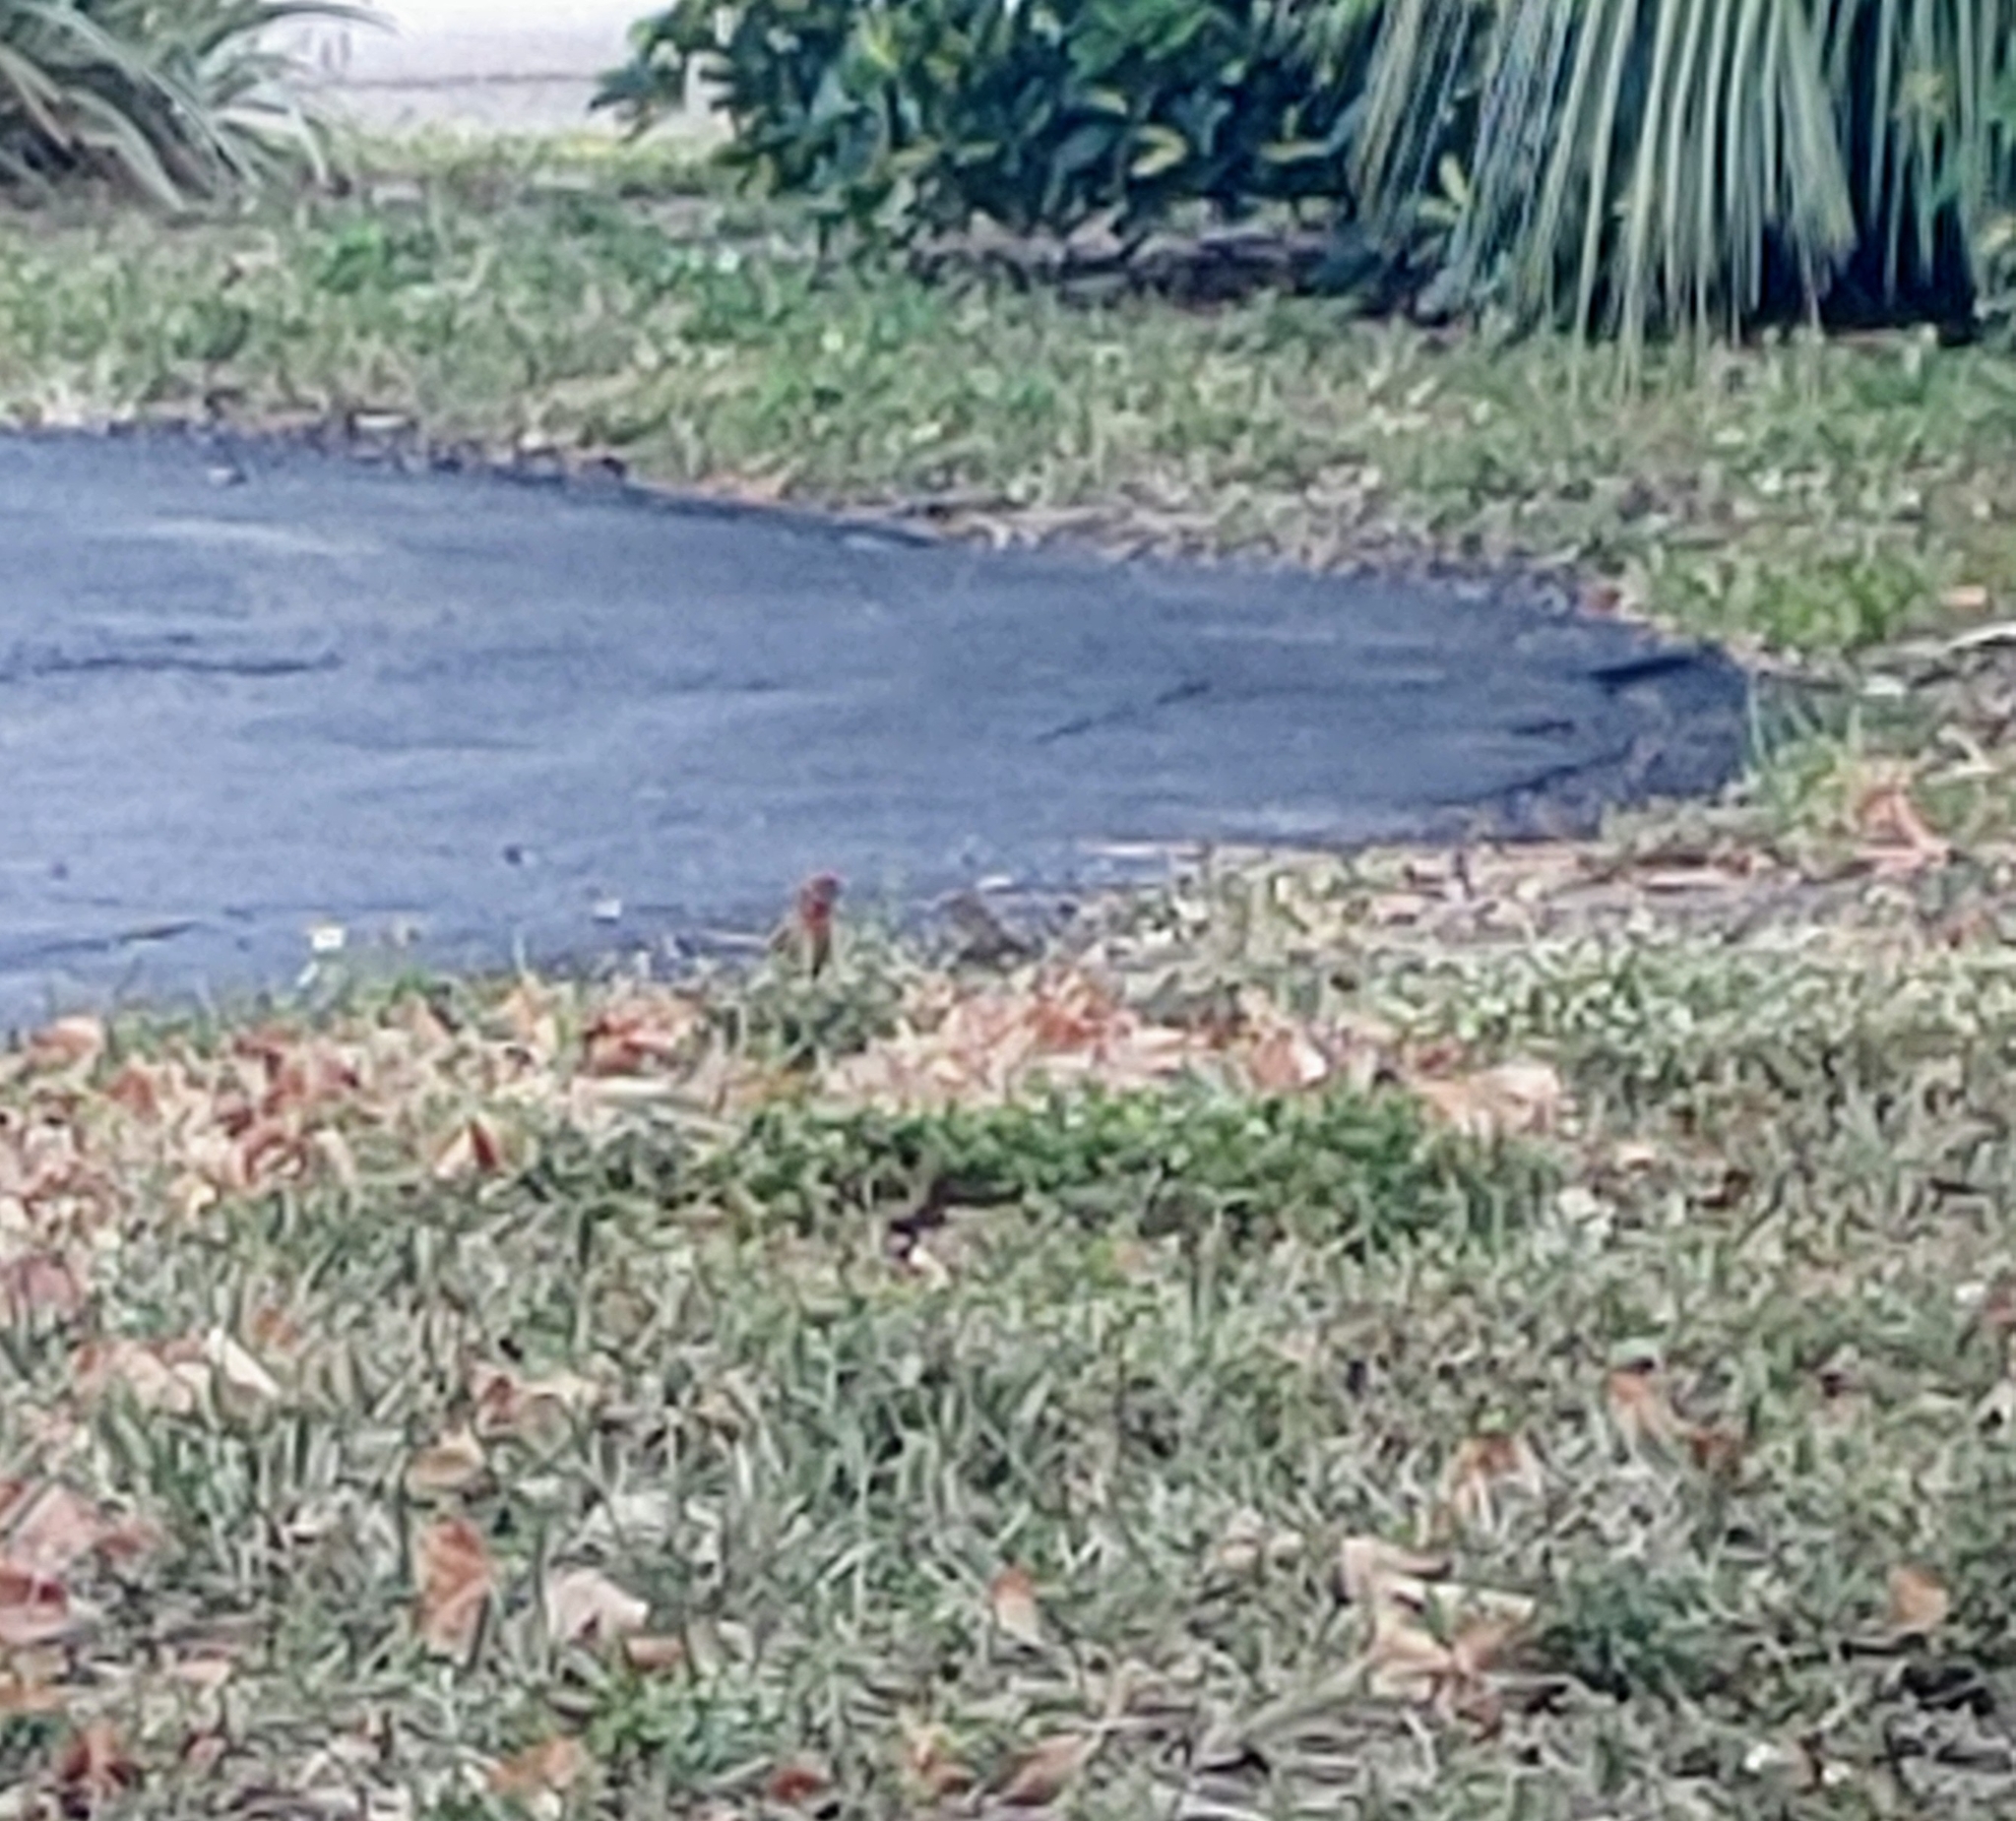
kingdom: Animalia
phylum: Chordata
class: Aves
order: Passeriformes
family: Fringillidae
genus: Haemorhous
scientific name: Haemorhous mexicanus
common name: House finch
